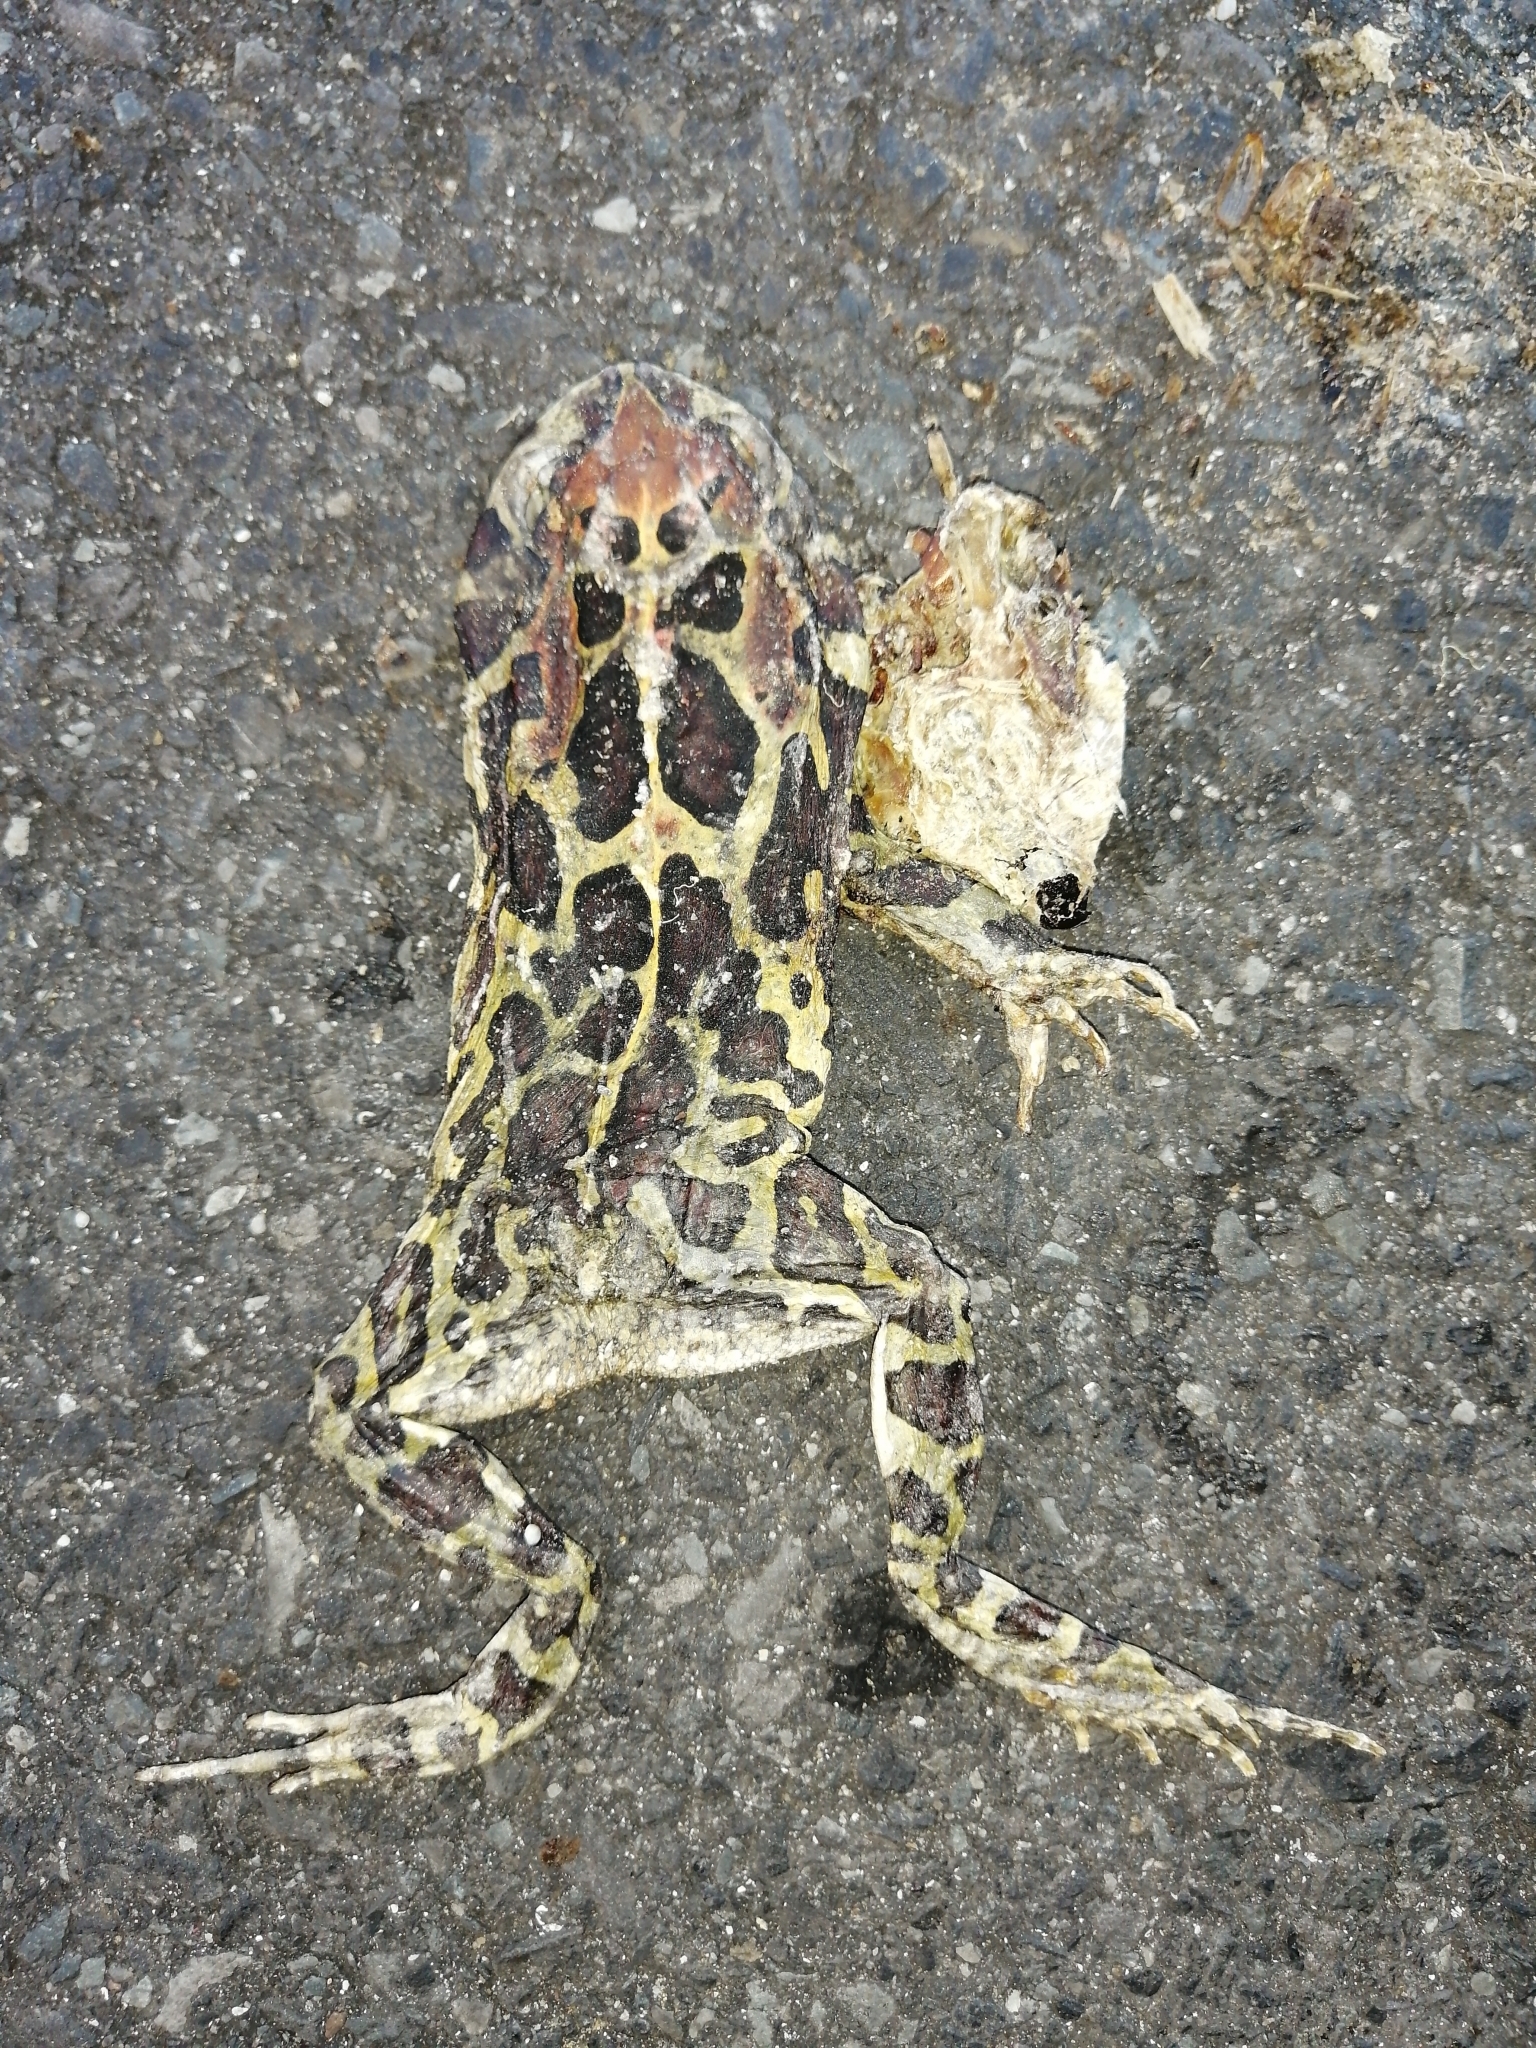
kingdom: Animalia
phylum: Chordata
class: Amphibia
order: Anura
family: Bufonidae
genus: Sclerophrys
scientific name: Sclerophrys pantherina
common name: Panther toad
